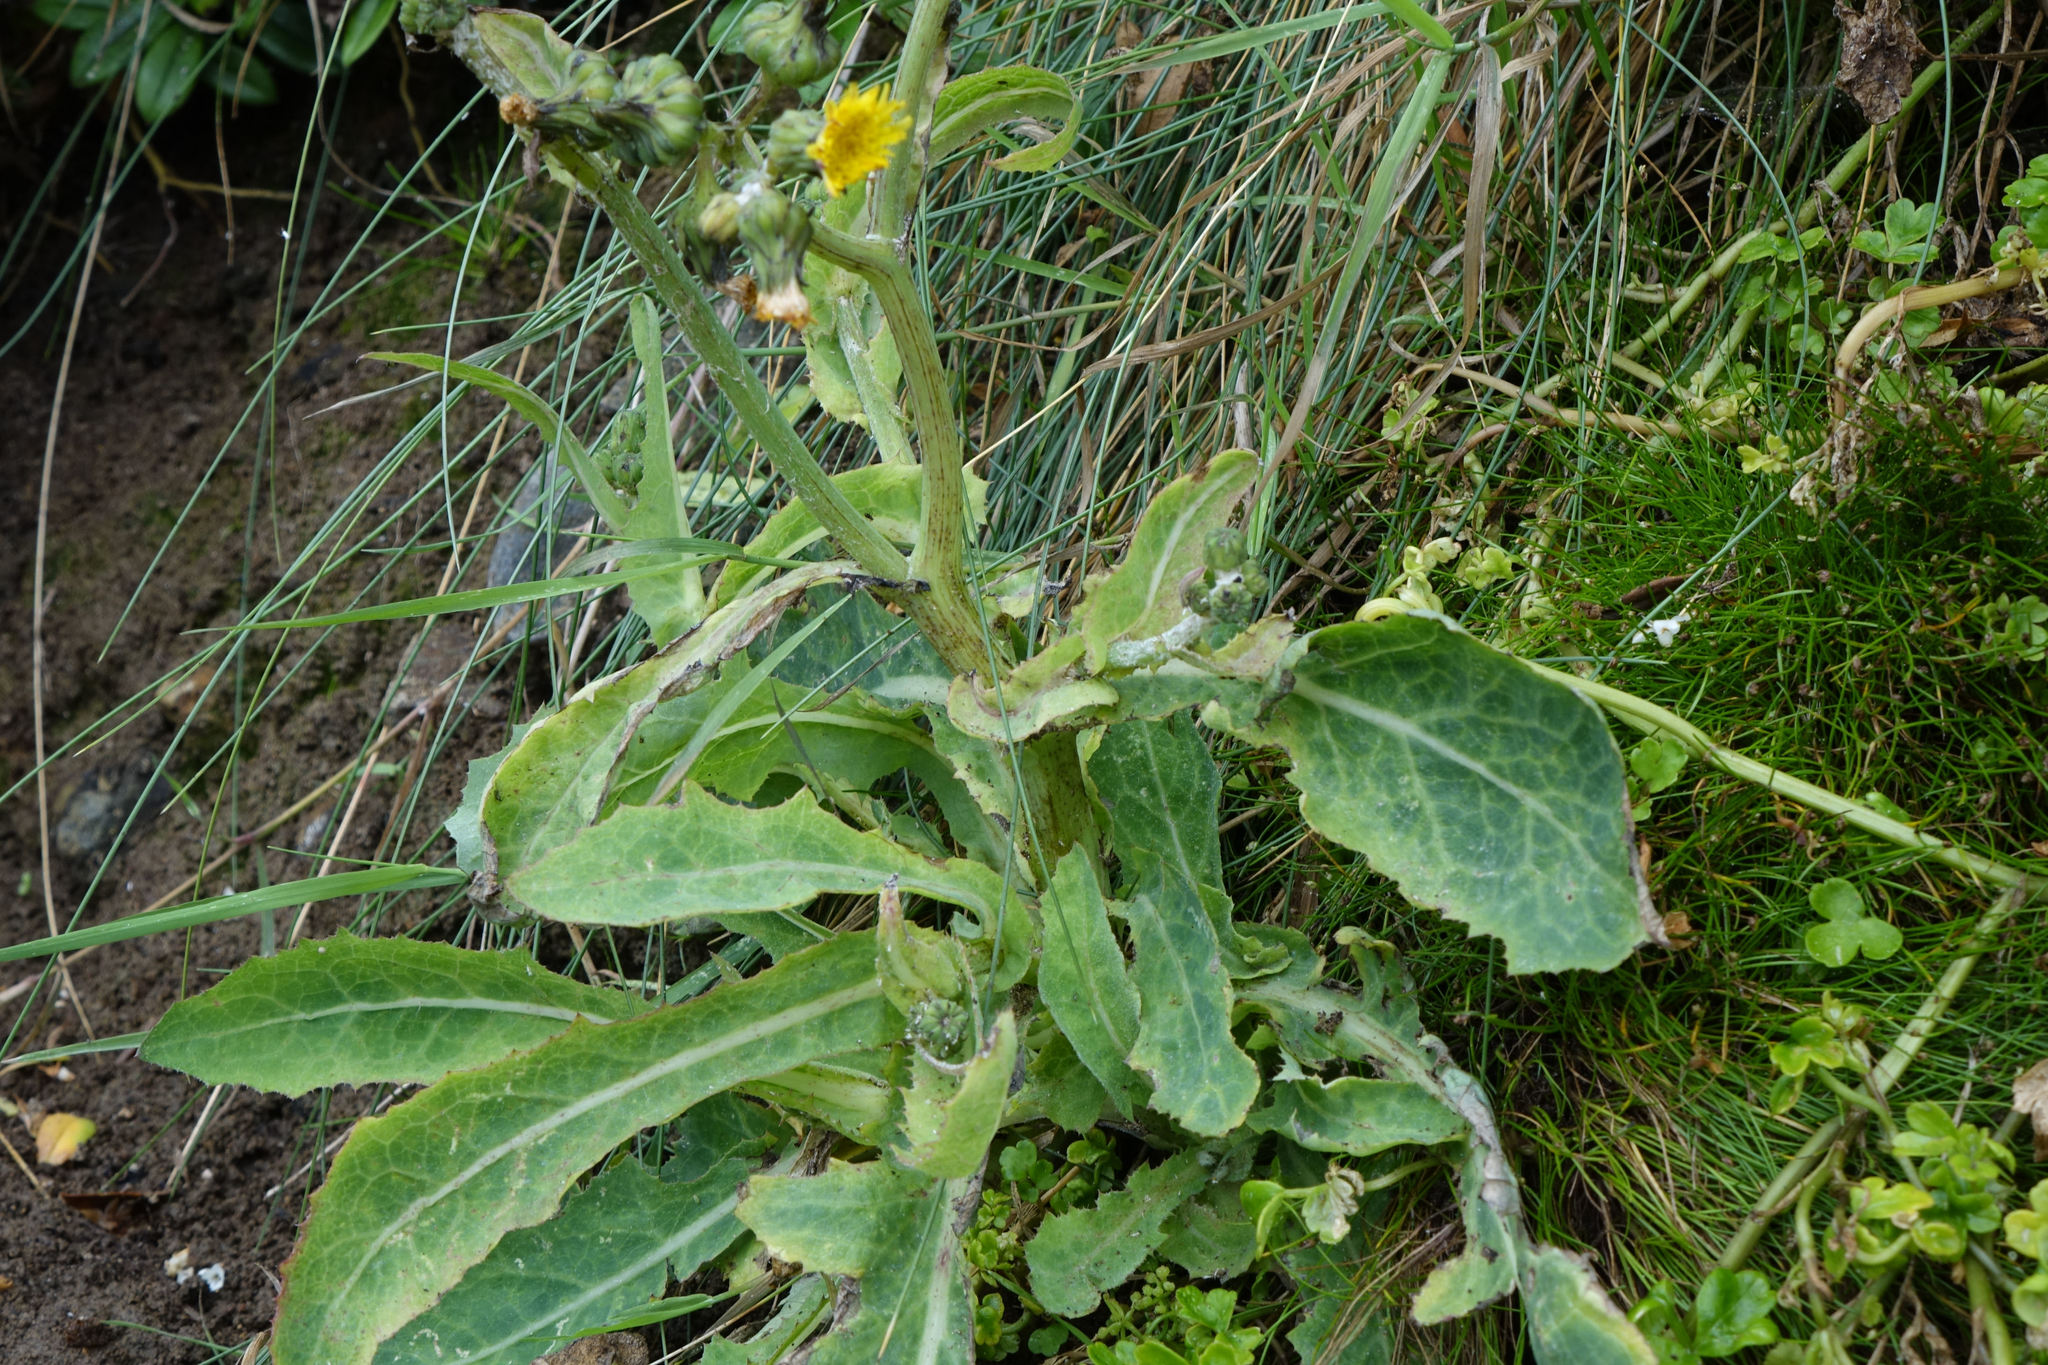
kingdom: Plantae
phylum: Tracheophyta
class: Magnoliopsida
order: Asterales
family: Asteraceae
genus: Sonchus
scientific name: Sonchus kirkii
